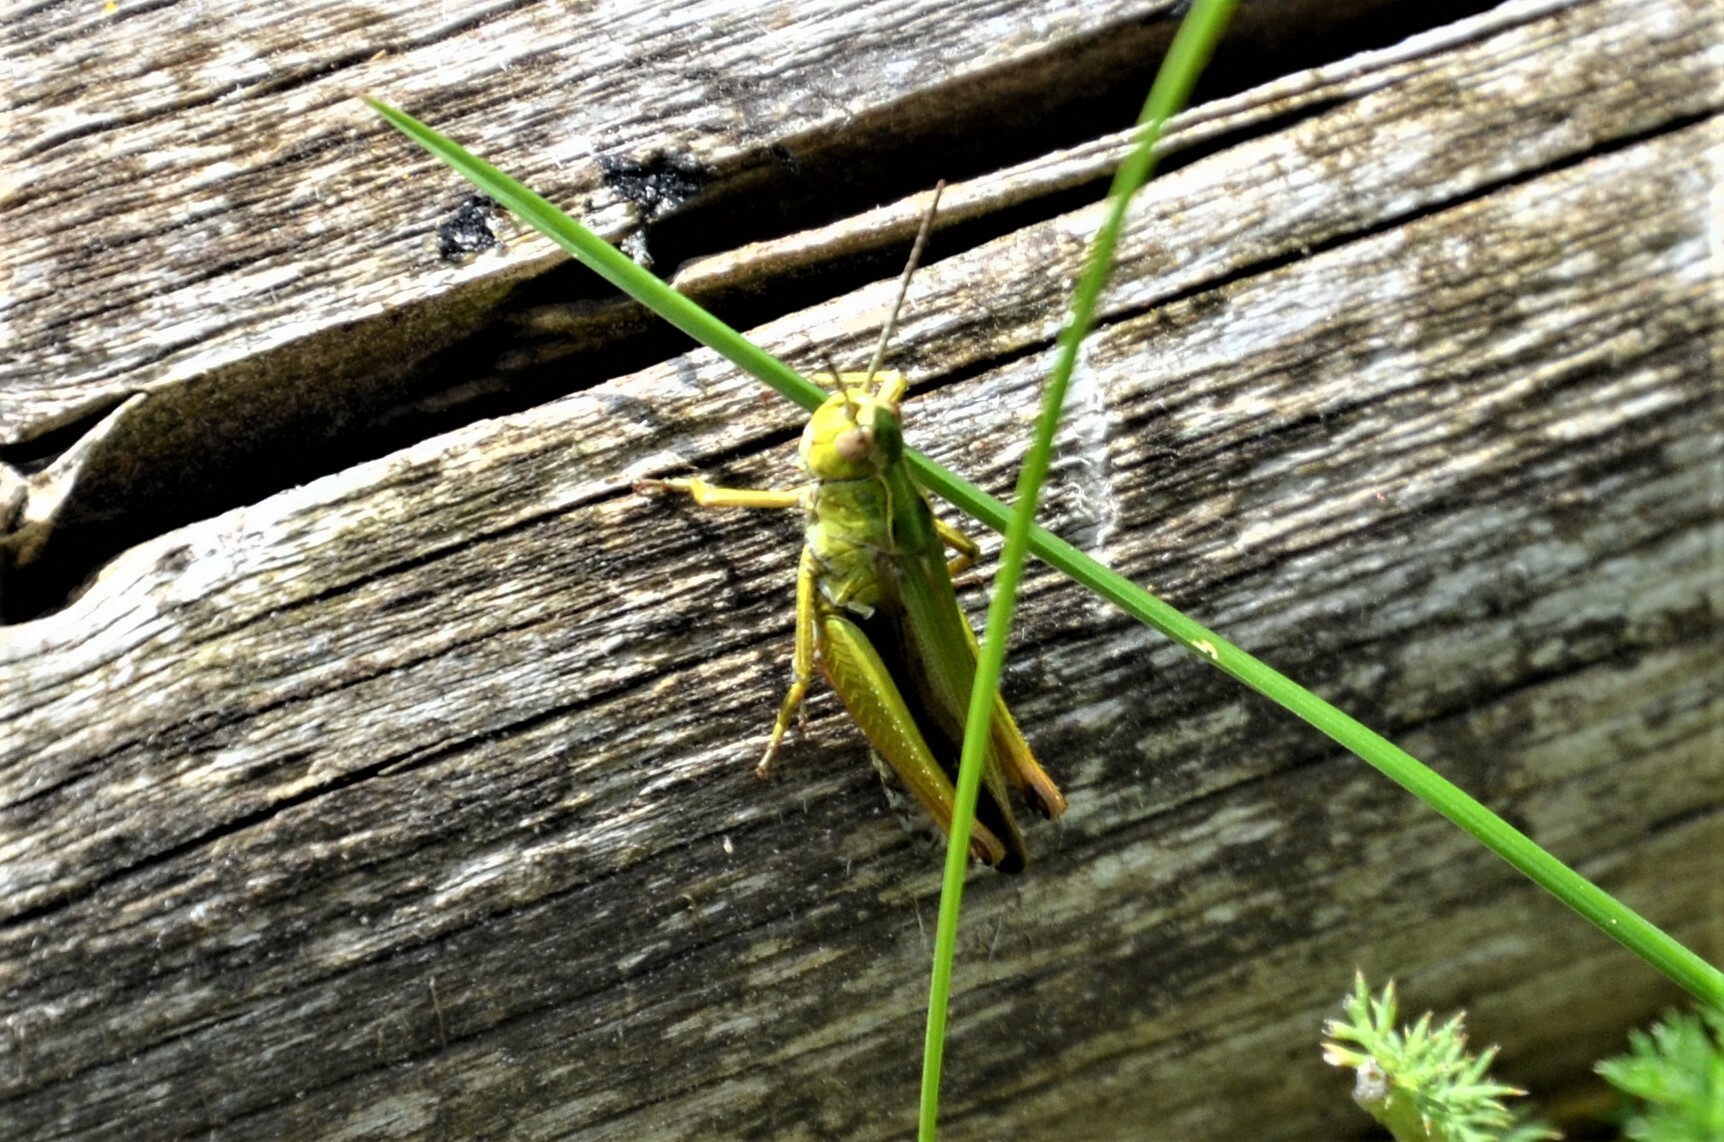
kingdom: Animalia
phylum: Arthropoda
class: Insecta
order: Orthoptera
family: Acrididae
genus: Omocestus
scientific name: Omocestus viridulus
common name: Common green grasshopper
